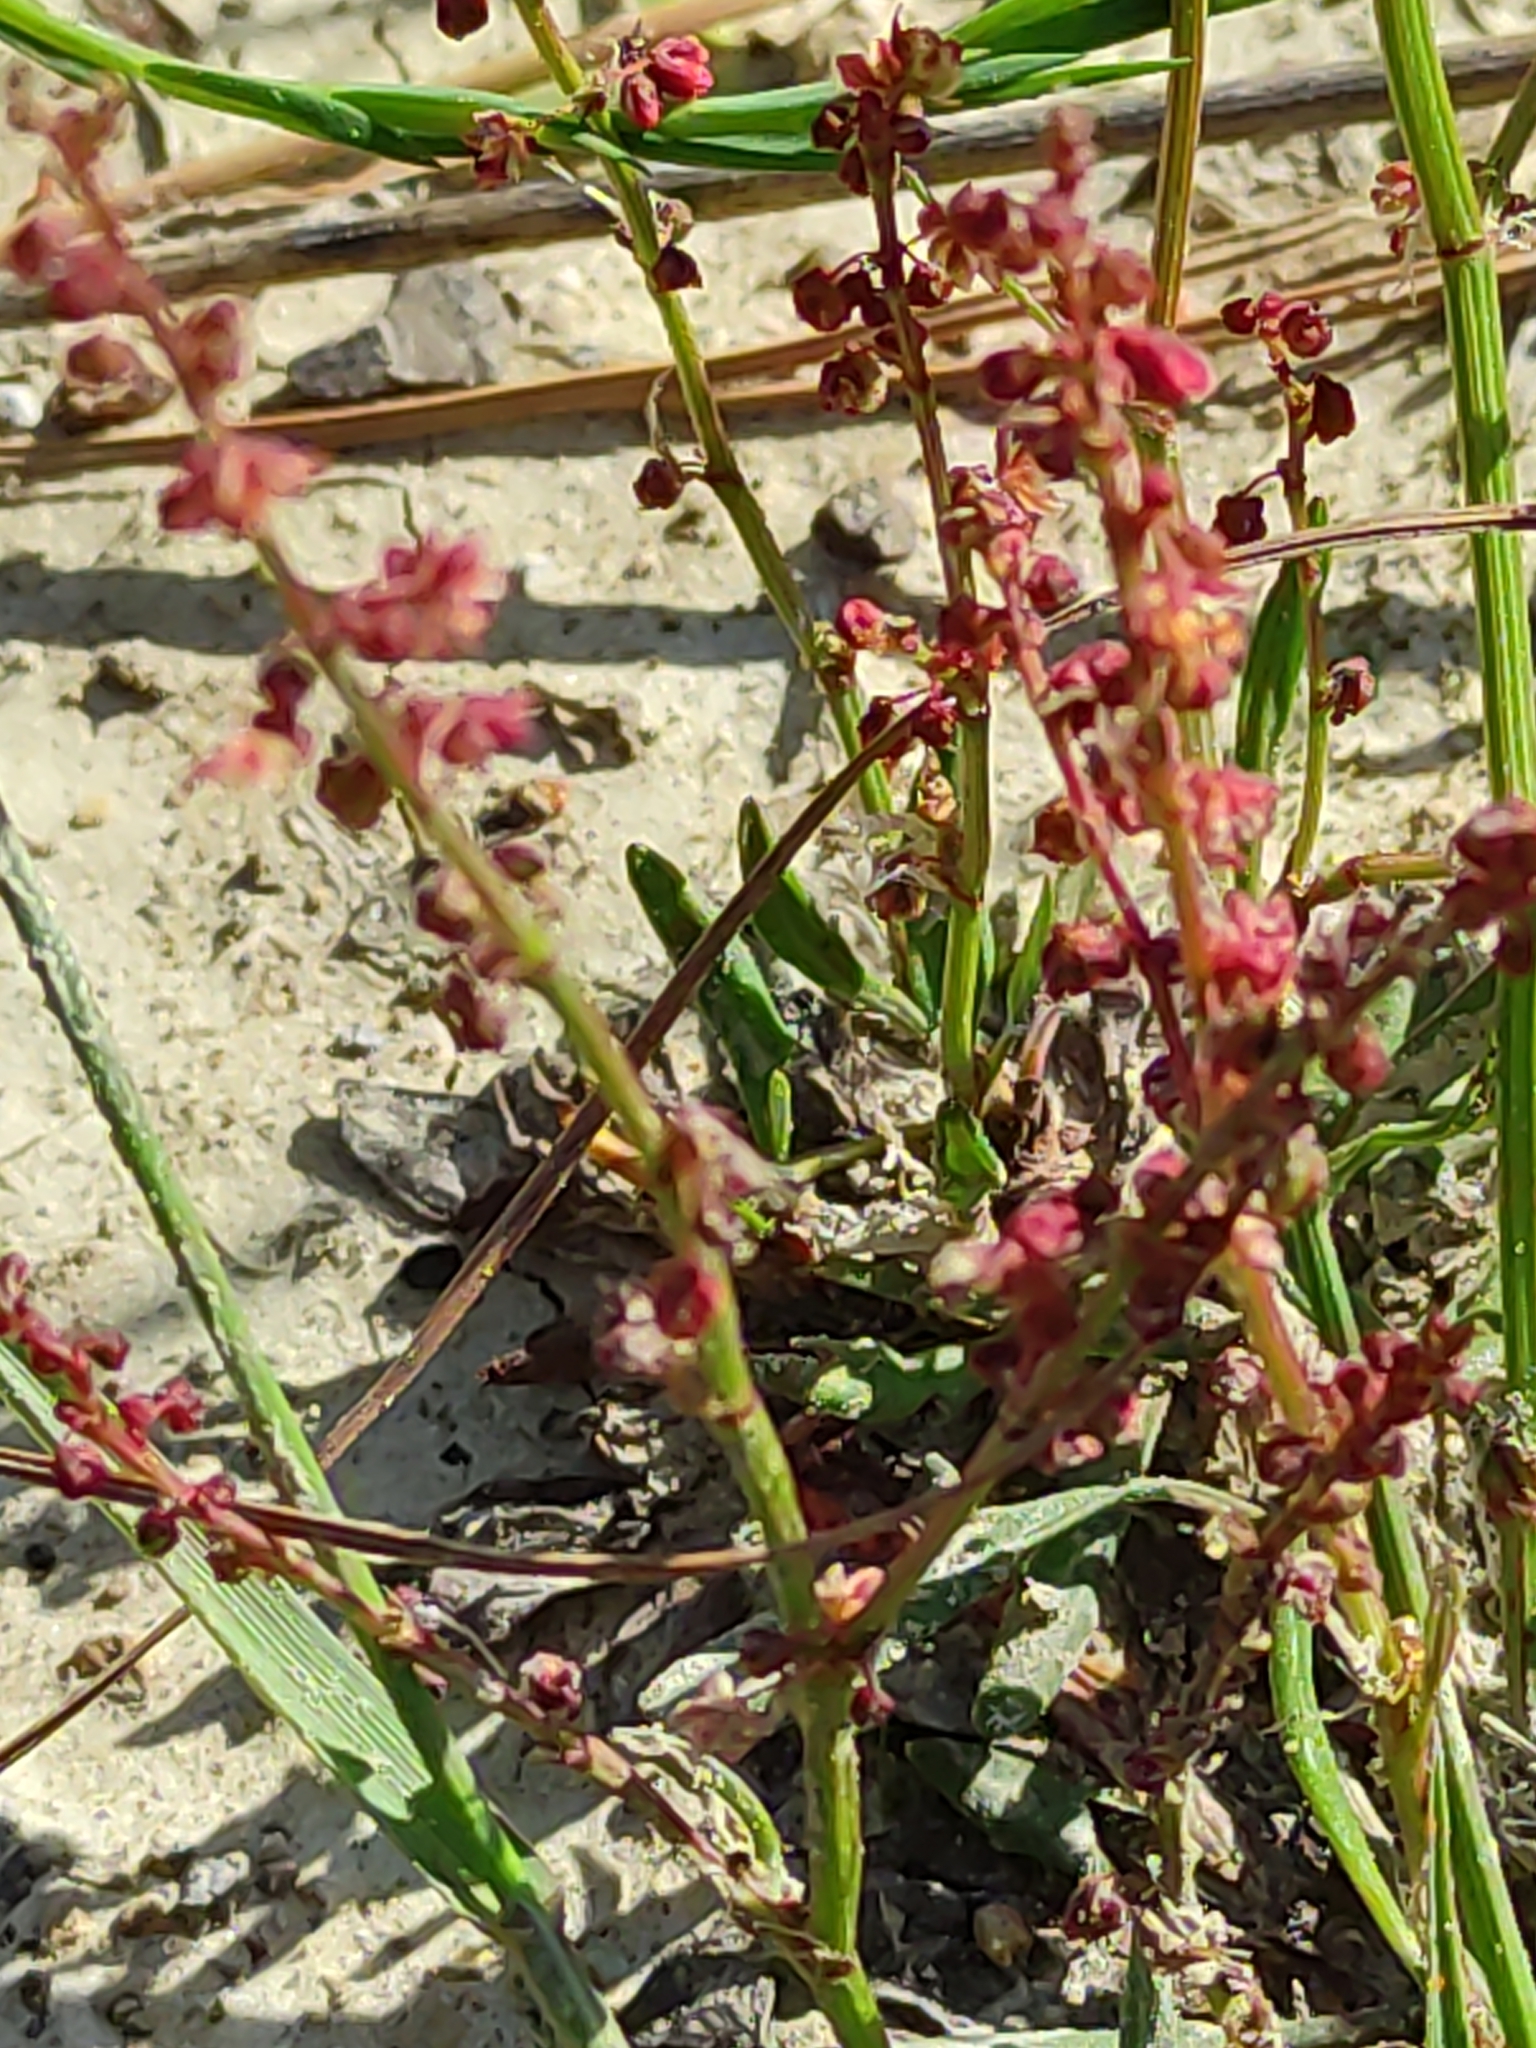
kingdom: Plantae
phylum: Tracheophyta
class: Magnoliopsida
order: Caryophyllales
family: Polygonaceae
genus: Rumex
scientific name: Rumex acetosella
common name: Common sheep sorrel
